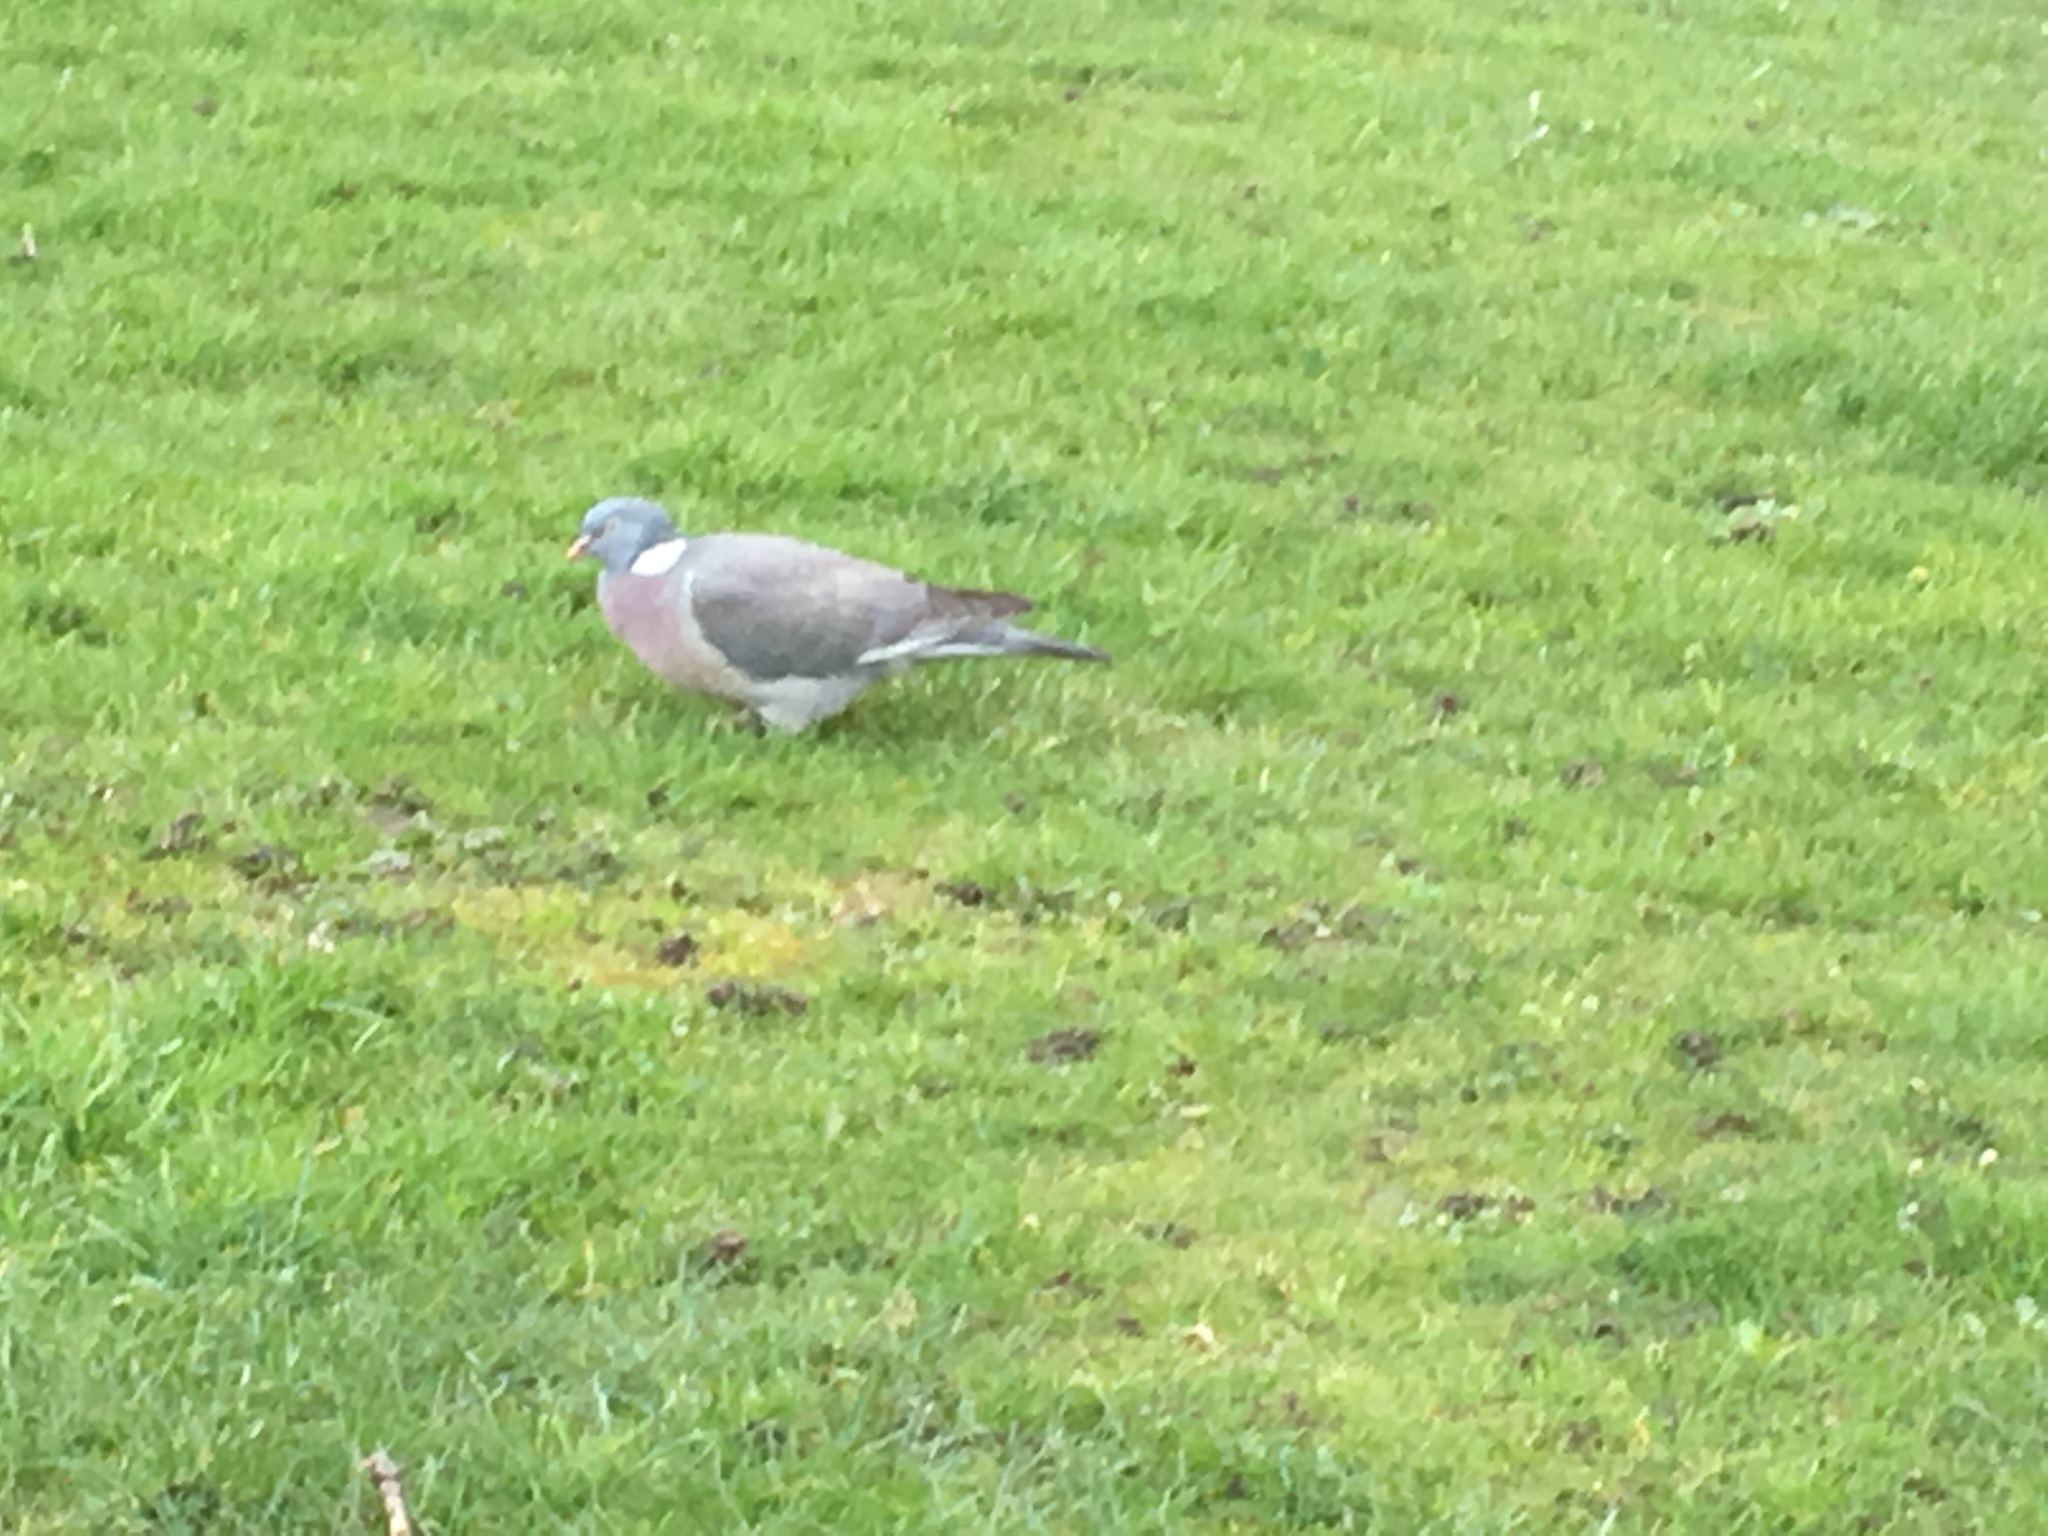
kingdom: Animalia
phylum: Chordata
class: Aves
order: Columbiformes
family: Columbidae
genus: Columba
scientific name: Columba palumbus
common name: Common wood pigeon
